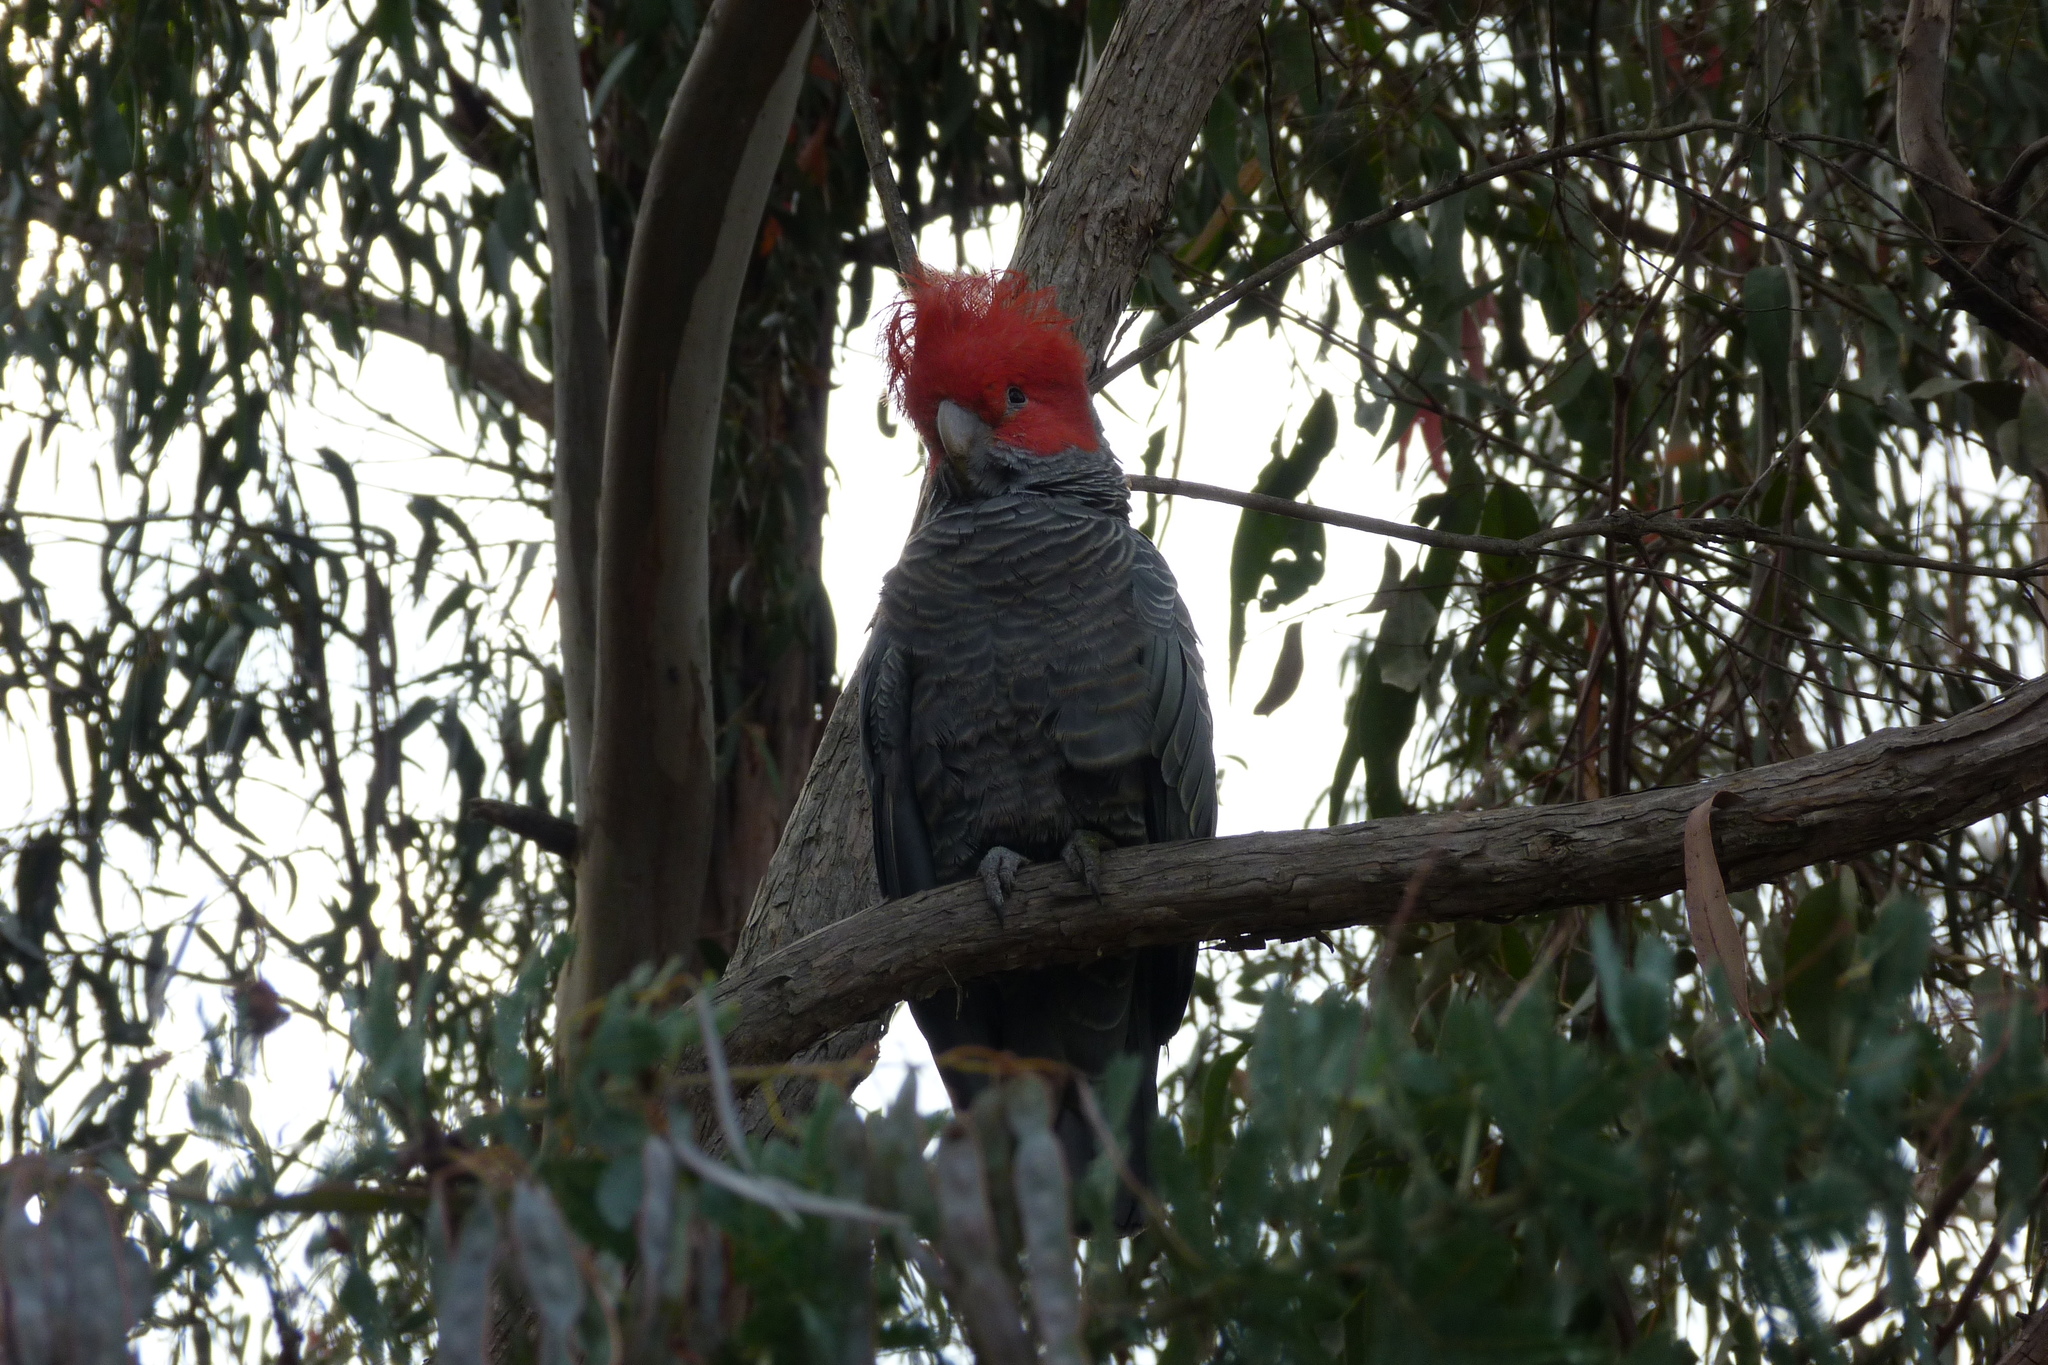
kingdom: Animalia
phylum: Chordata
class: Aves
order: Psittaciformes
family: Psittacidae
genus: Callocephalon
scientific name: Callocephalon fimbriatum
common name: Gang-gang cockatoo
